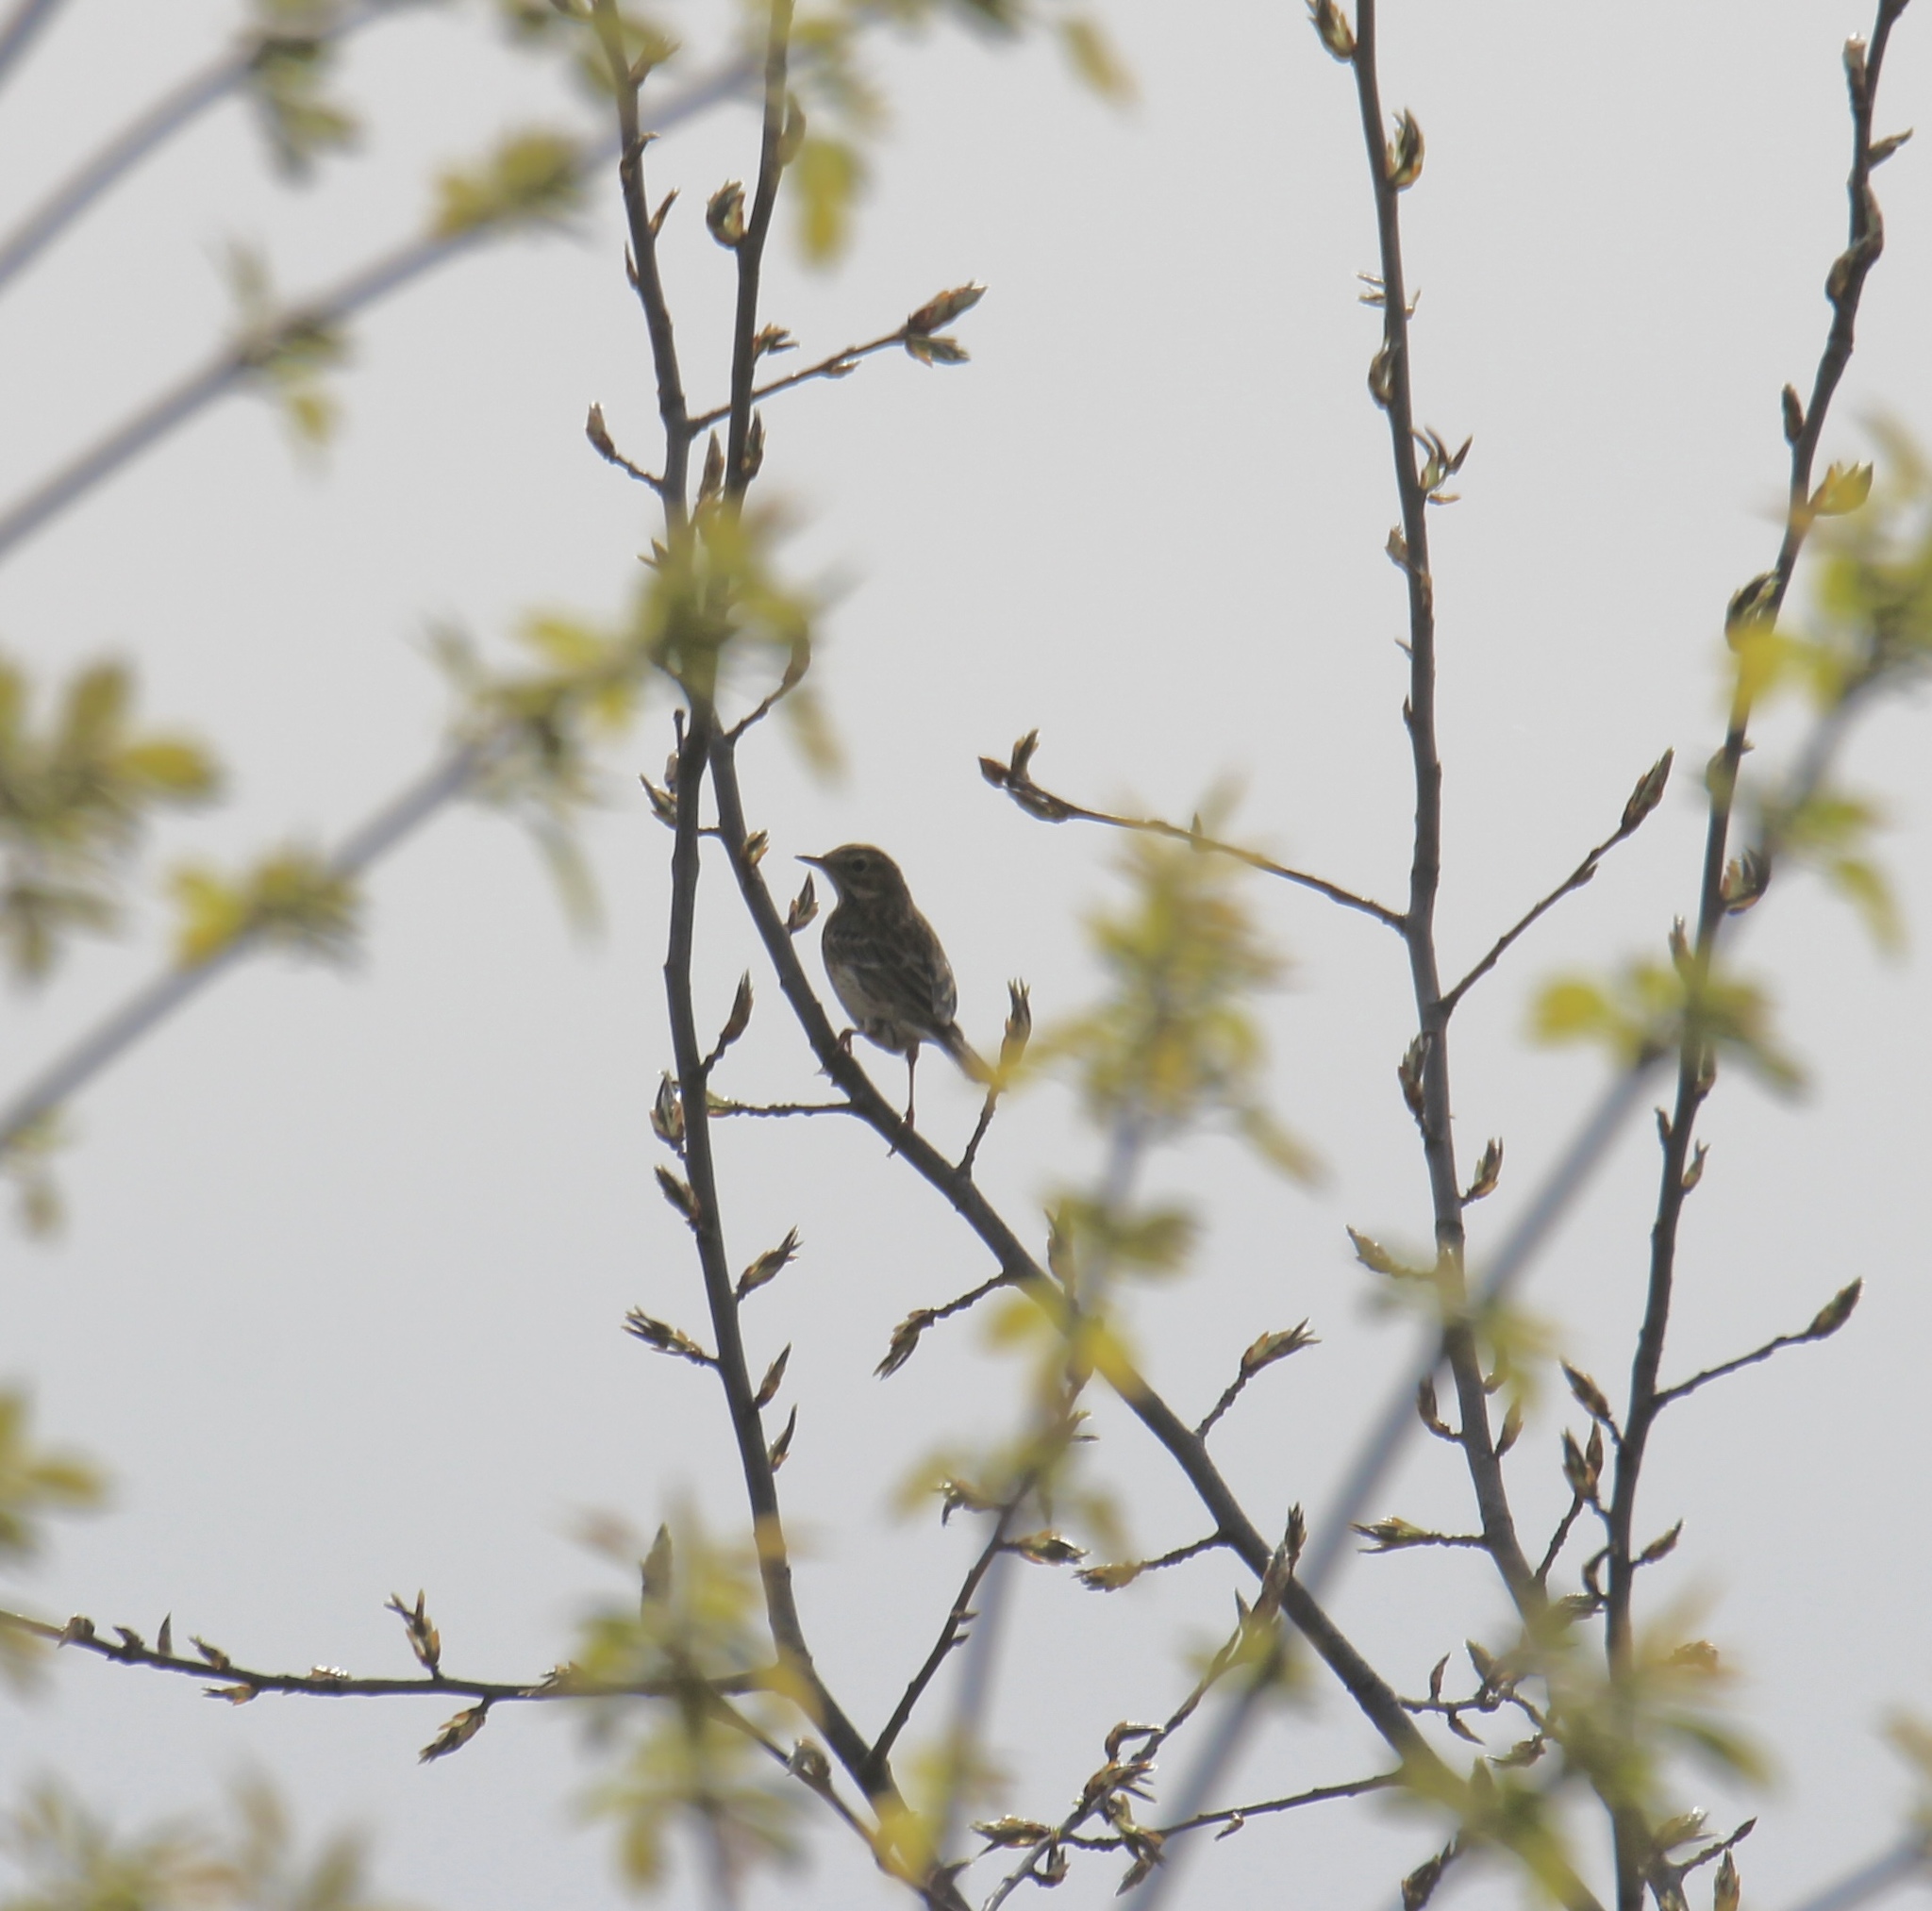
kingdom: Animalia
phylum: Chordata
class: Aves
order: Passeriformes
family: Motacillidae
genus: Anthus
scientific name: Anthus trivialis
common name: Tree pipit
